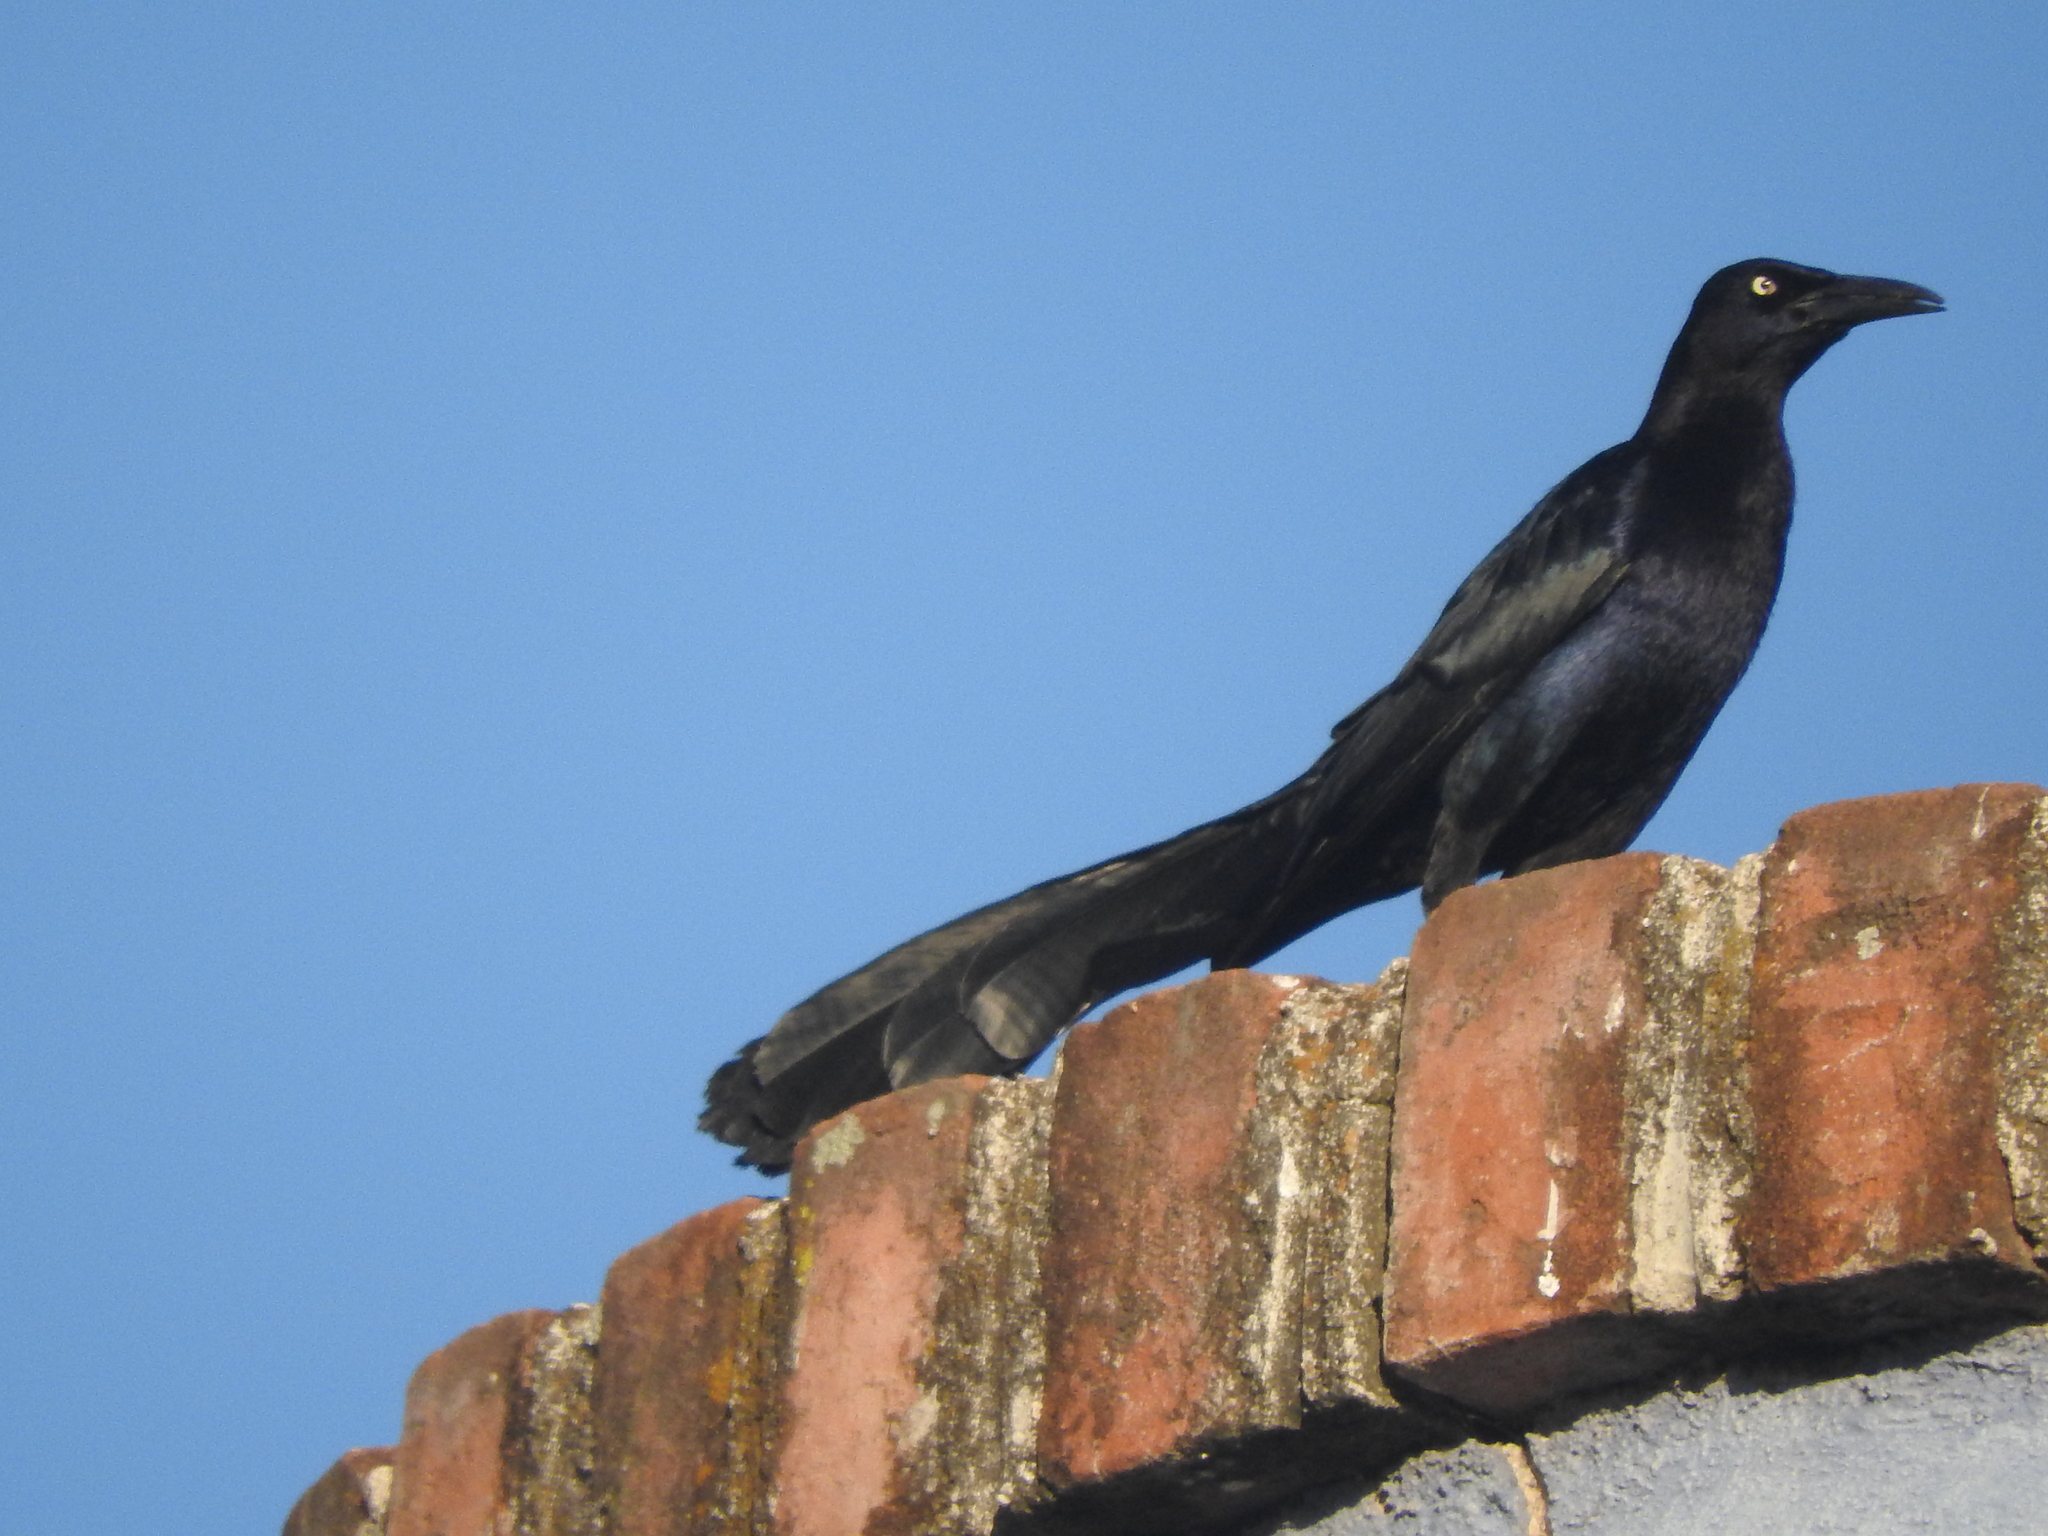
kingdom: Animalia
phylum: Chordata
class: Aves
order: Passeriformes
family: Icteridae
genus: Quiscalus
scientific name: Quiscalus mexicanus
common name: Great-tailed grackle
